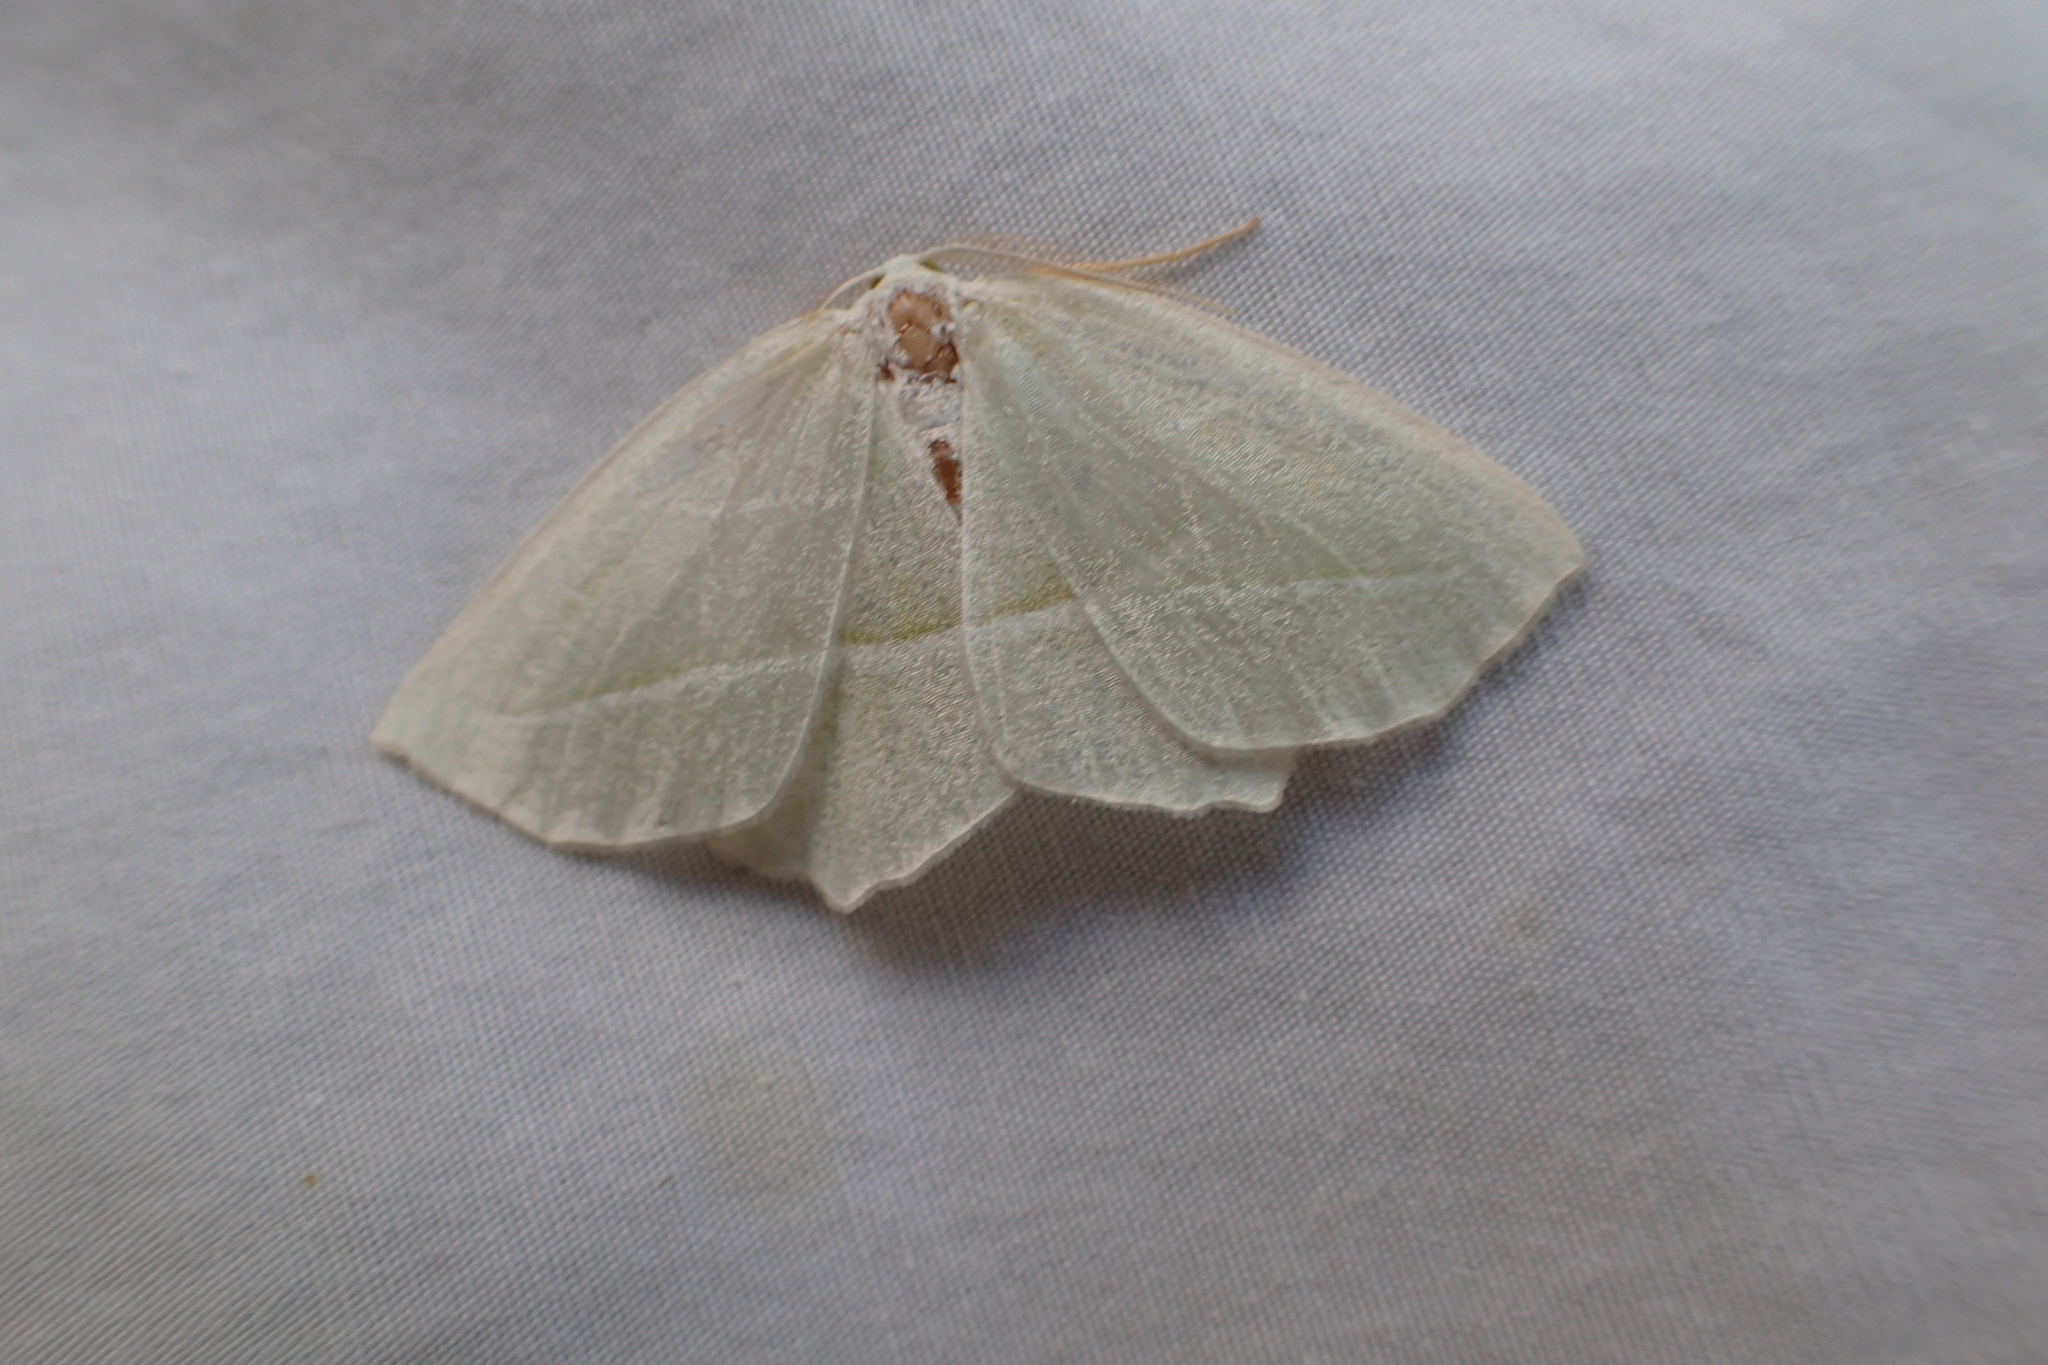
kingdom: Animalia
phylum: Arthropoda
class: Insecta
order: Lepidoptera
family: Geometridae
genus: Campaea
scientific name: Campaea perlata
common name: Fringed looper
